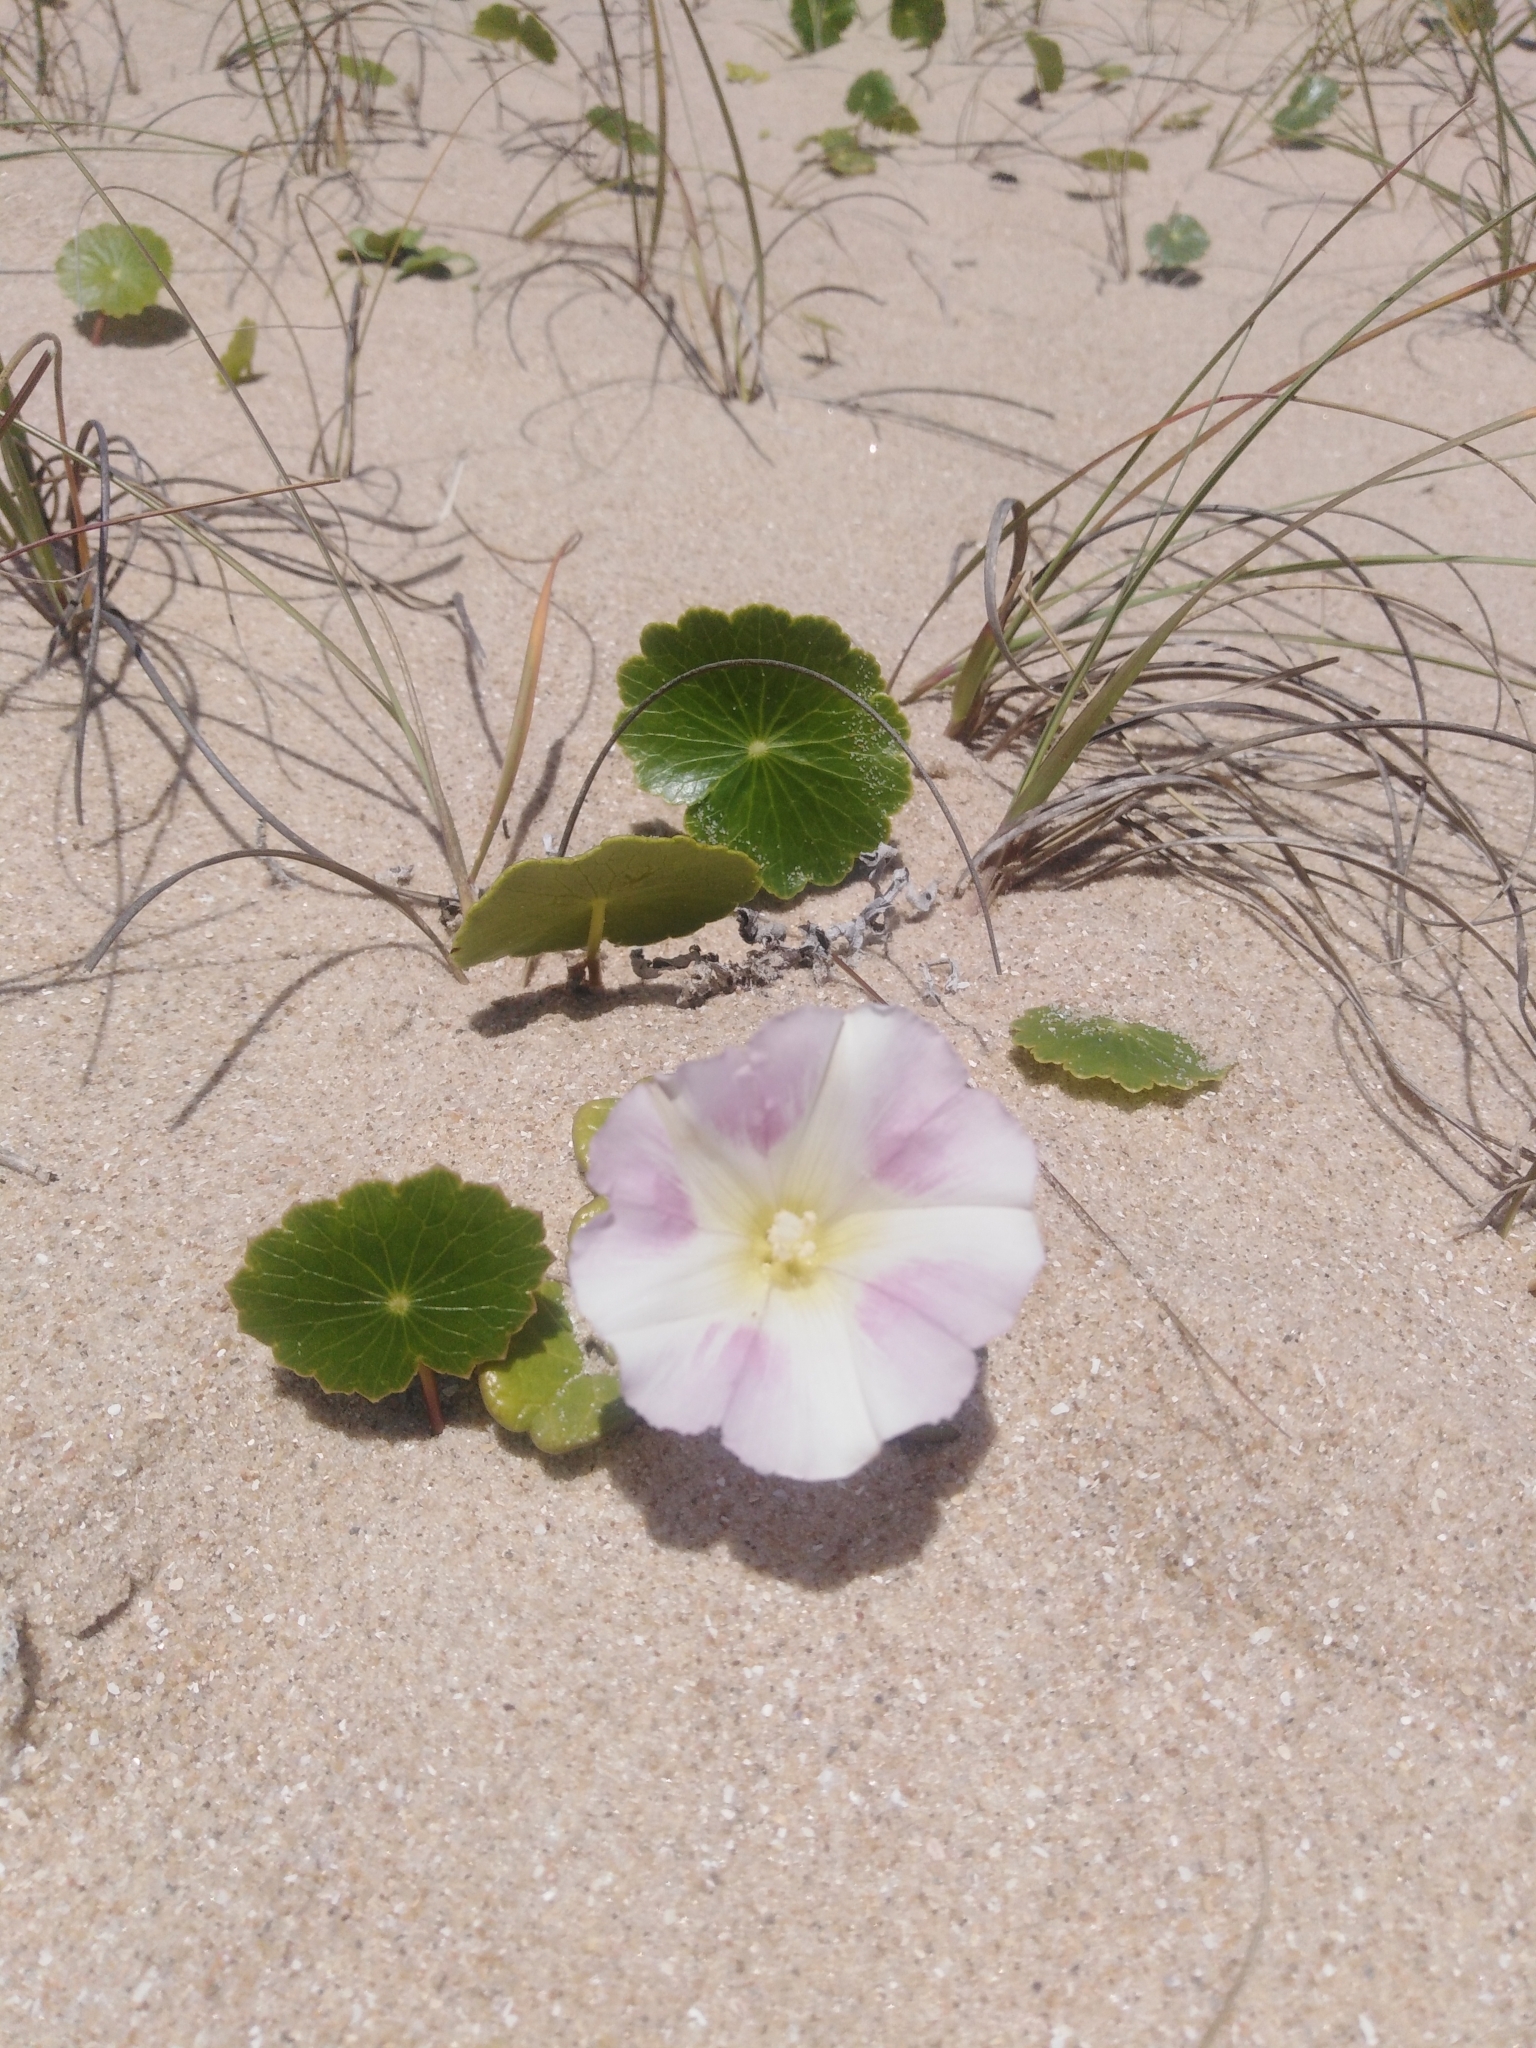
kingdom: Plantae
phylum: Tracheophyta
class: Magnoliopsida
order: Solanales
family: Convolvulaceae
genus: Calystegia
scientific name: Calystegia soldanella
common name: Sea bindweed
